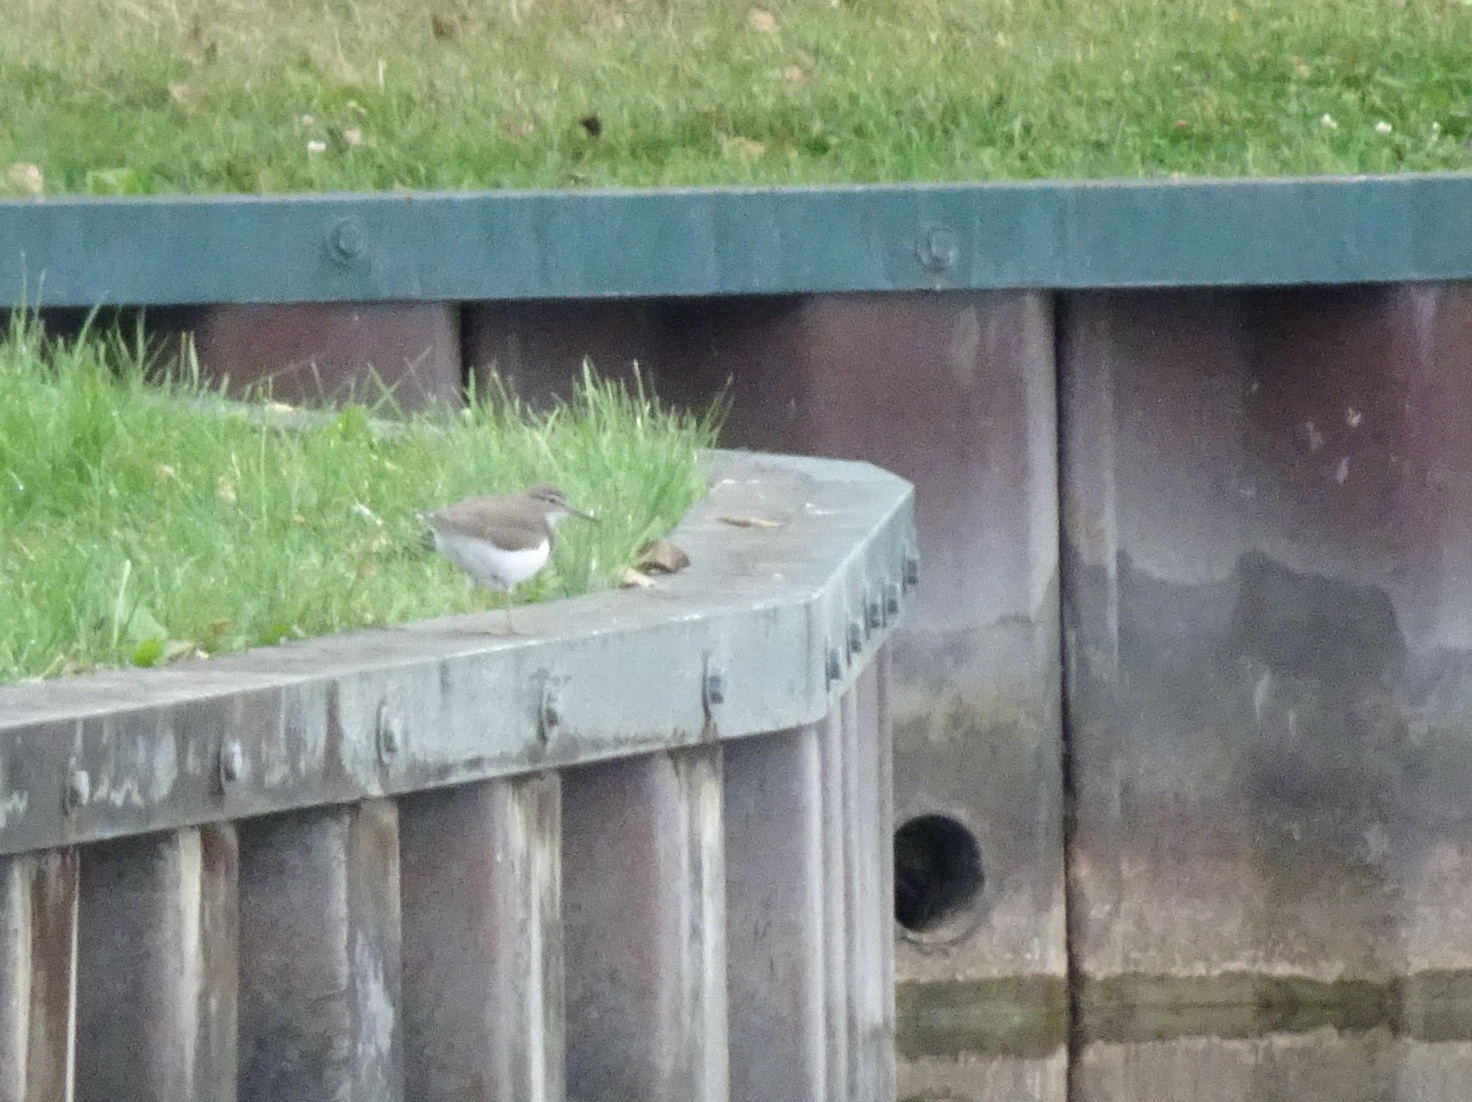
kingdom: Animalia
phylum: Chordata
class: Aves
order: Charadriiformes
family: Scolopacidae
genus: Actitis
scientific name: Actitis macularius
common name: Spotted sandpiper
